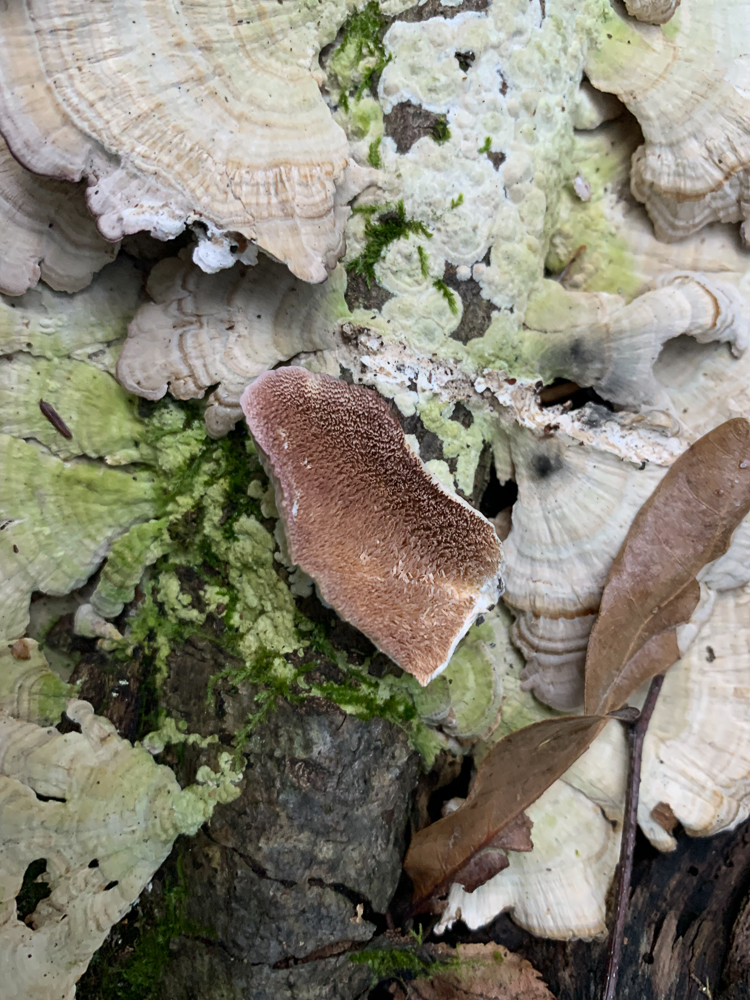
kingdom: Fungi
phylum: Basidiomycota
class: Agaricomycetes
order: Hymenochaetales
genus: Trichaptum
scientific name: Trichaptum biforme
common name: Violet-toothed polypore
